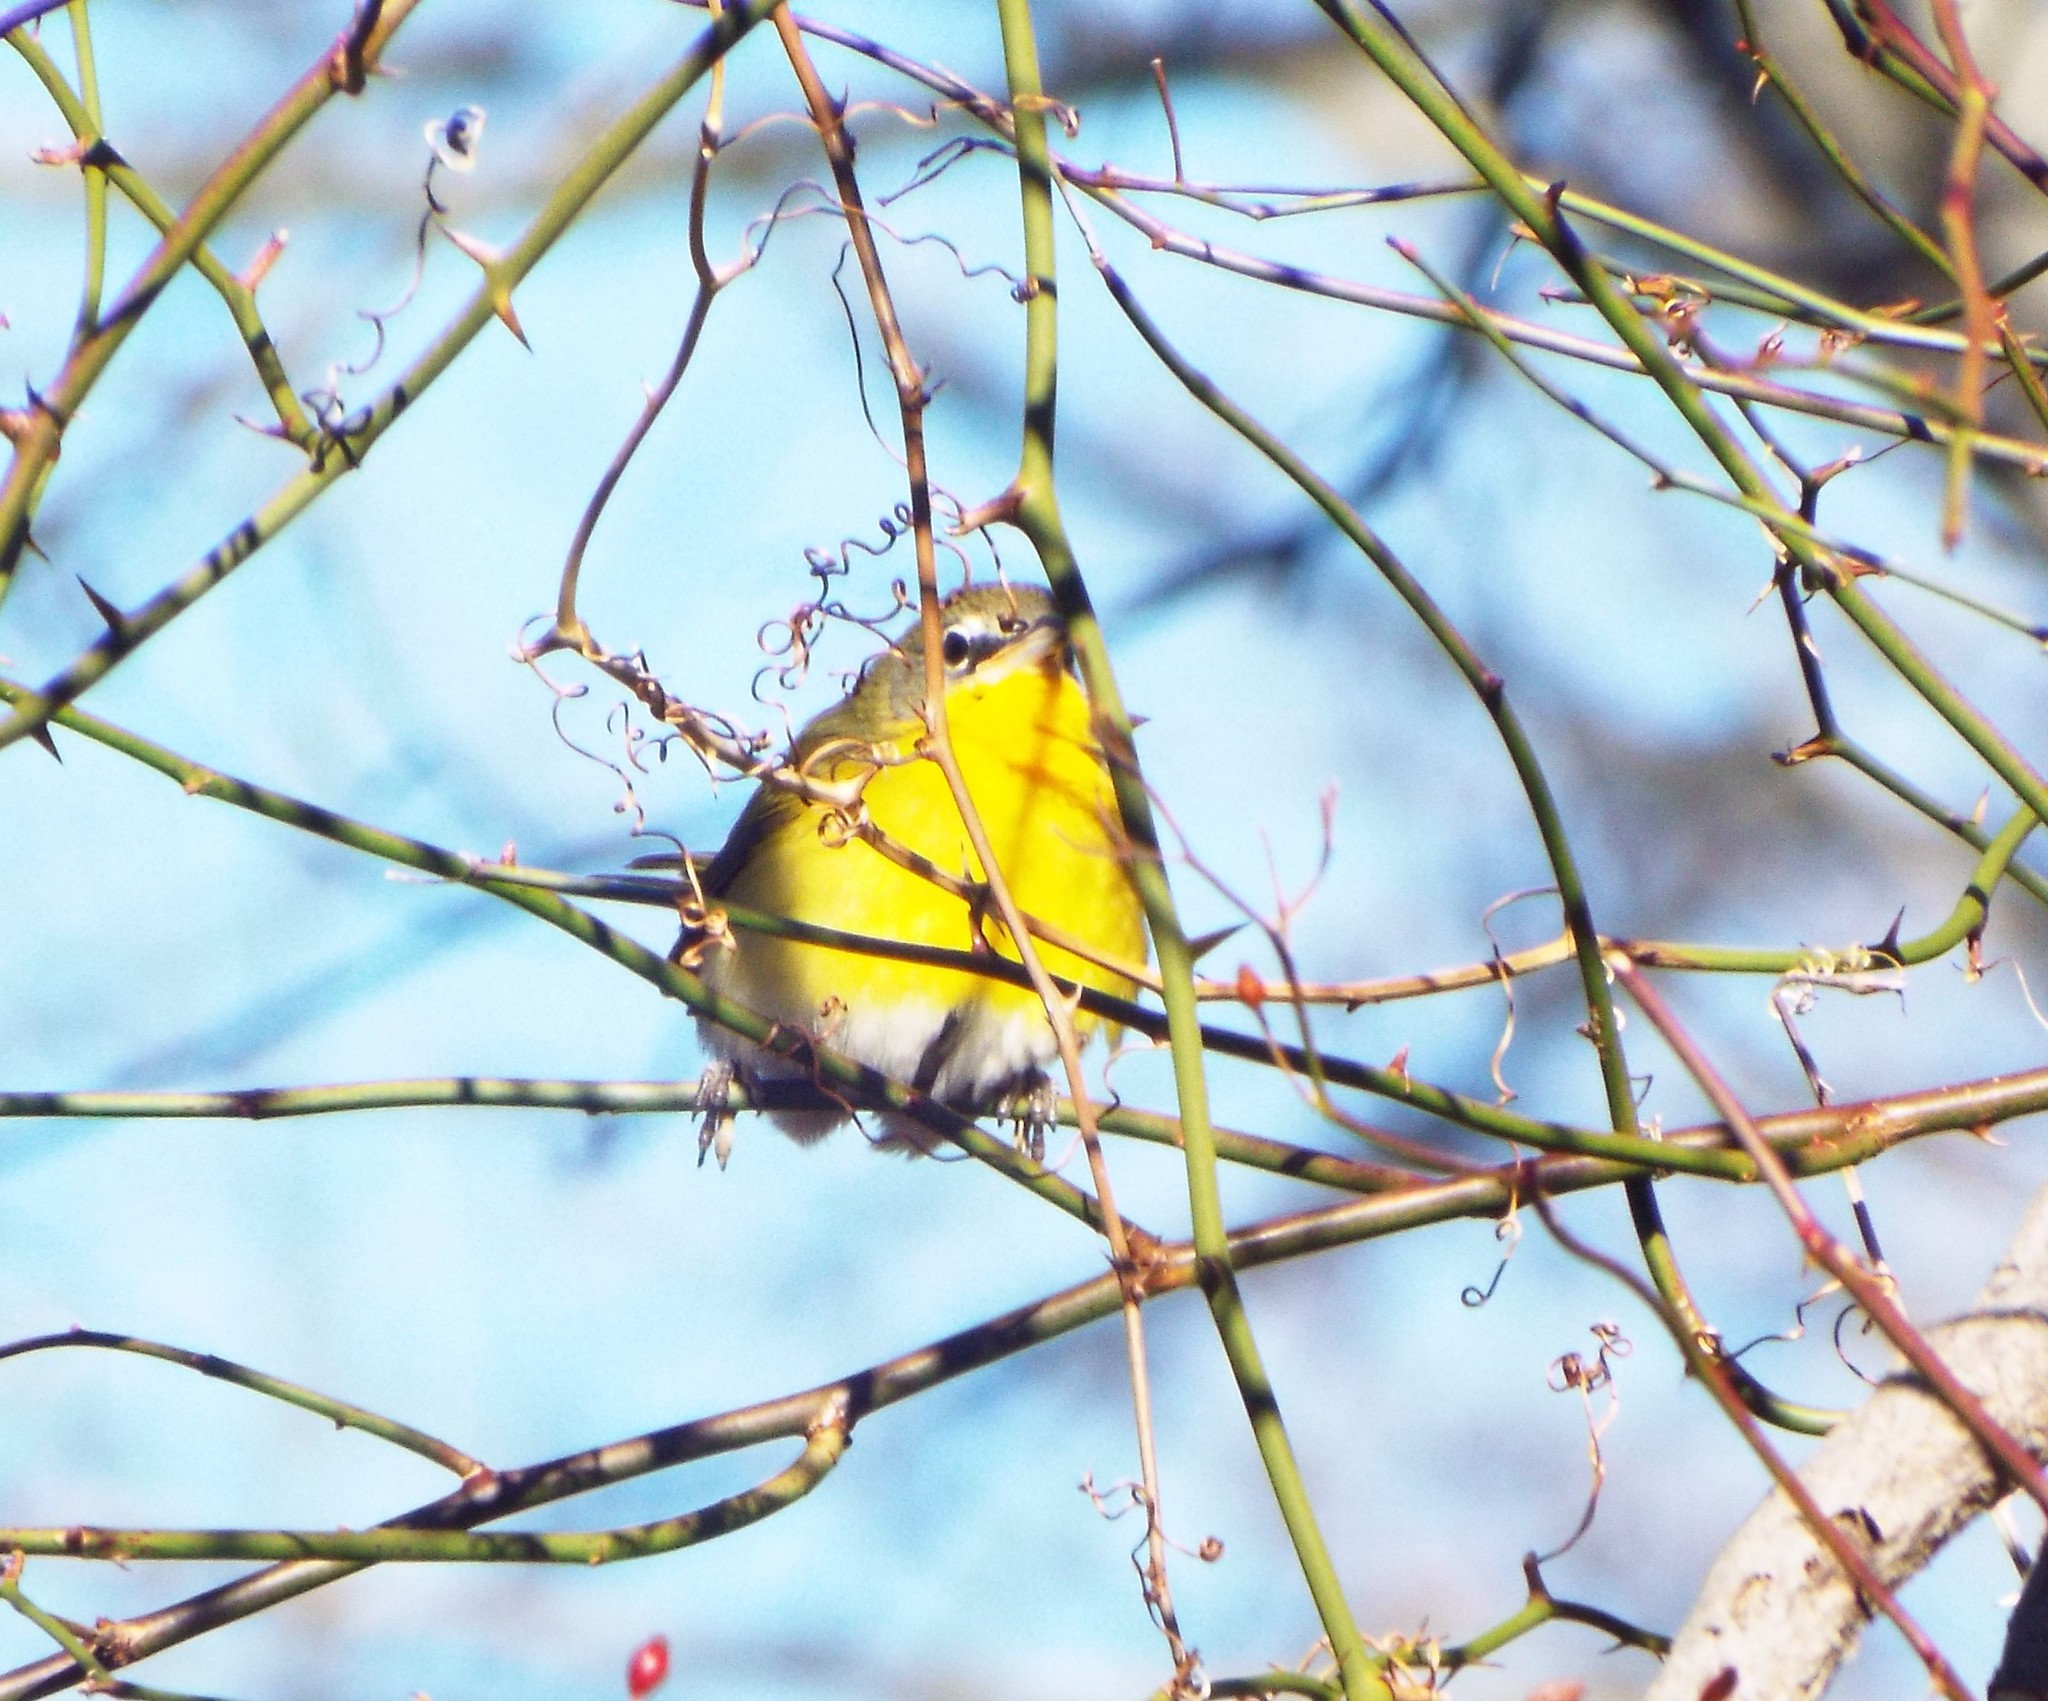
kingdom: Animalia
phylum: Chordata
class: Aves
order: Passeriformes
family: Parulidae
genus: Icteria
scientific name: Icteria virens
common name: Yellow-breasted chat
